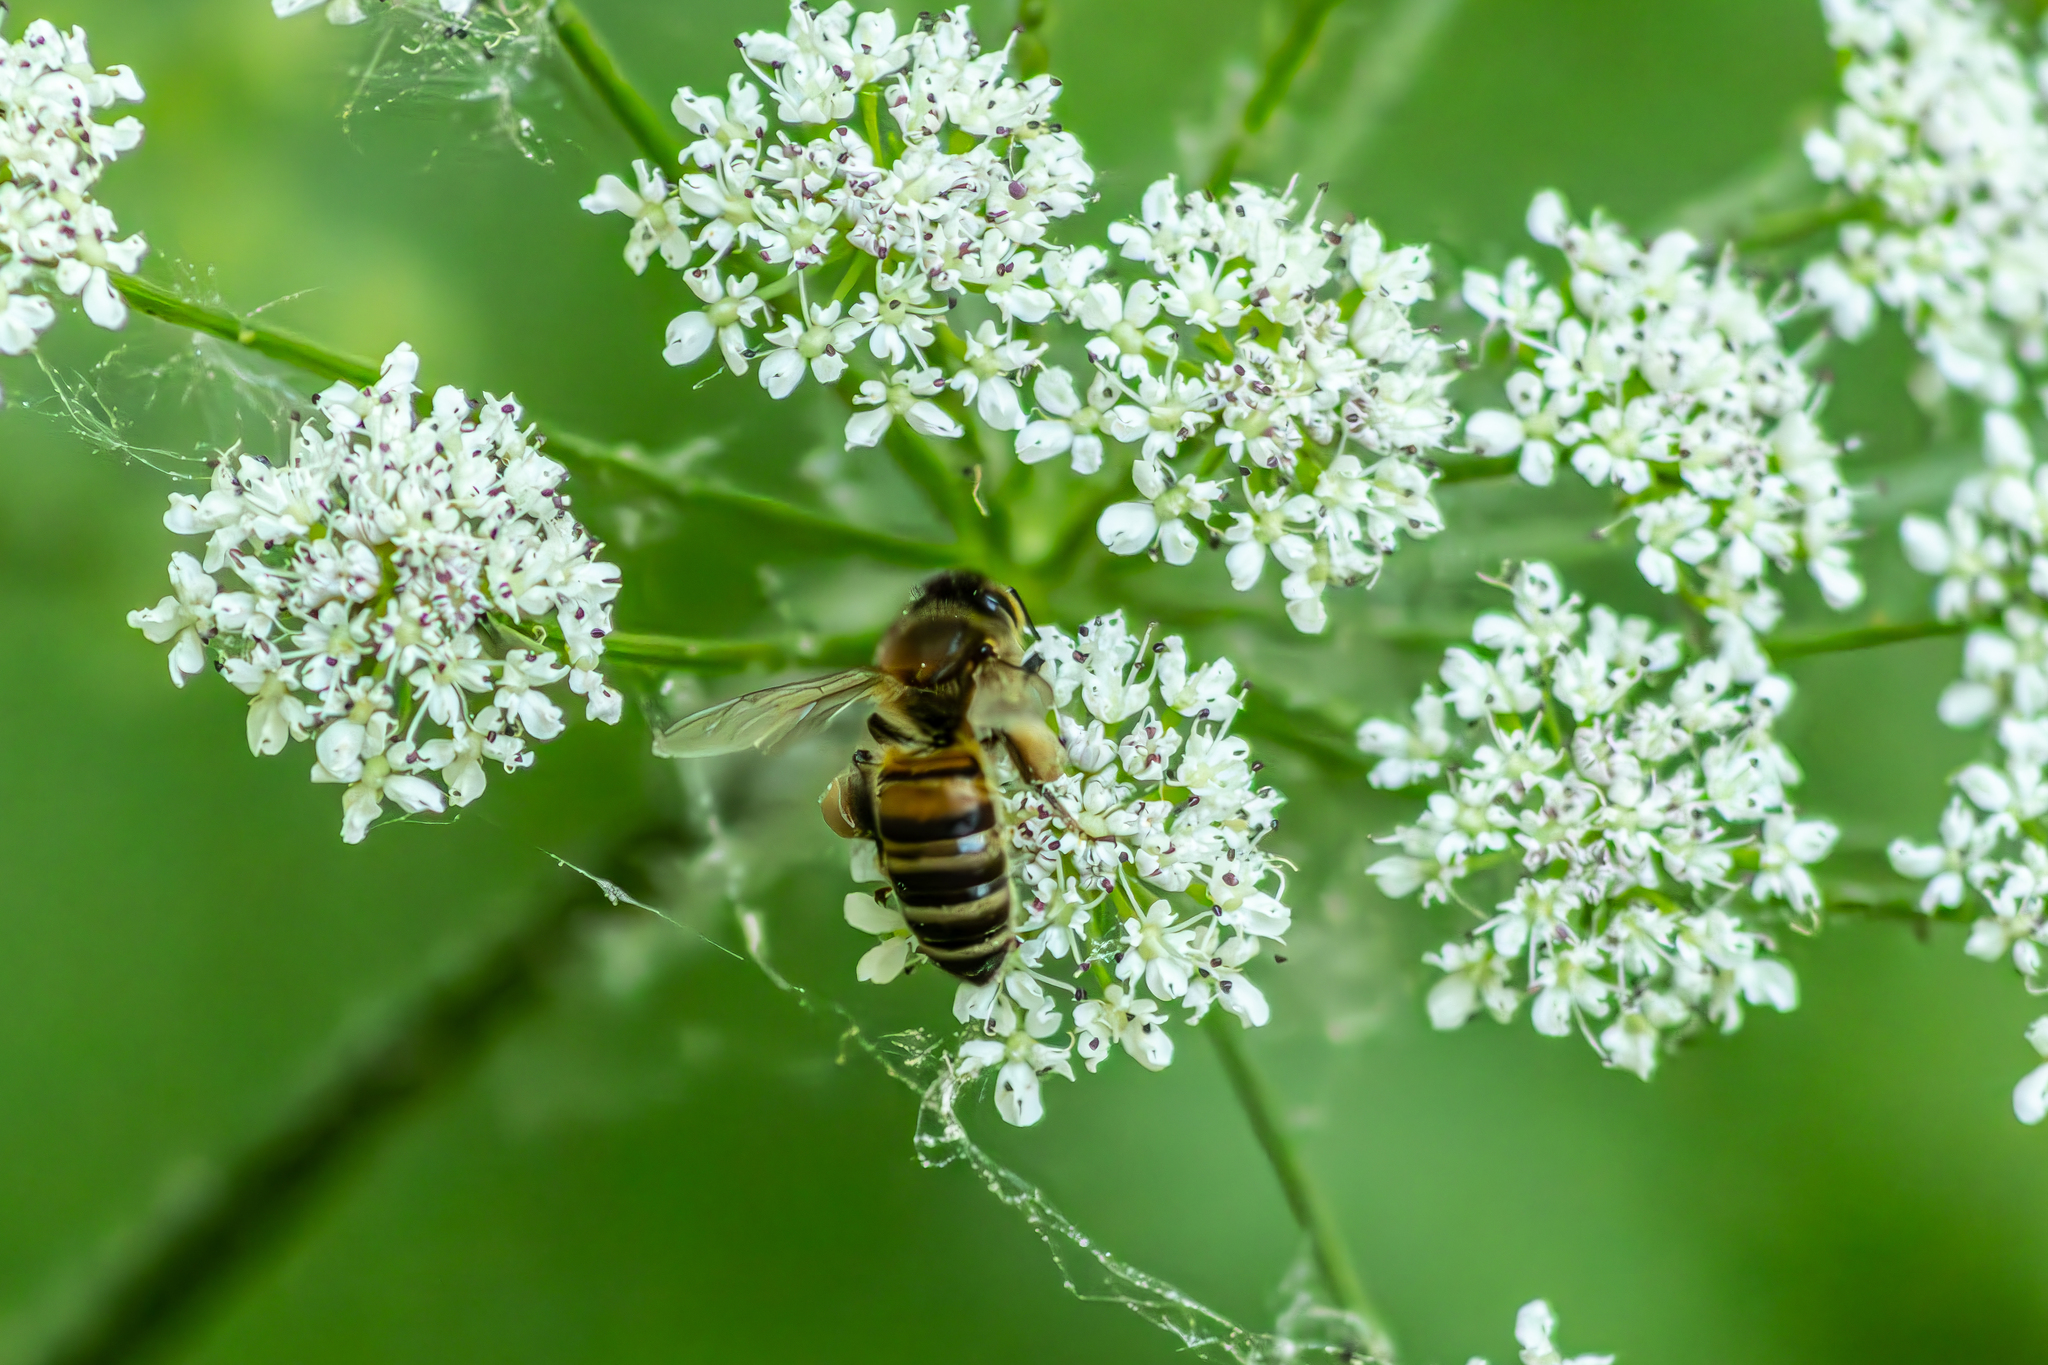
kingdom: Animalia
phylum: Arthropoda
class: Insecta
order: Hymenoptera
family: Apidae
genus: Apis
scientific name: Apis mellifera
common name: Honey bee
